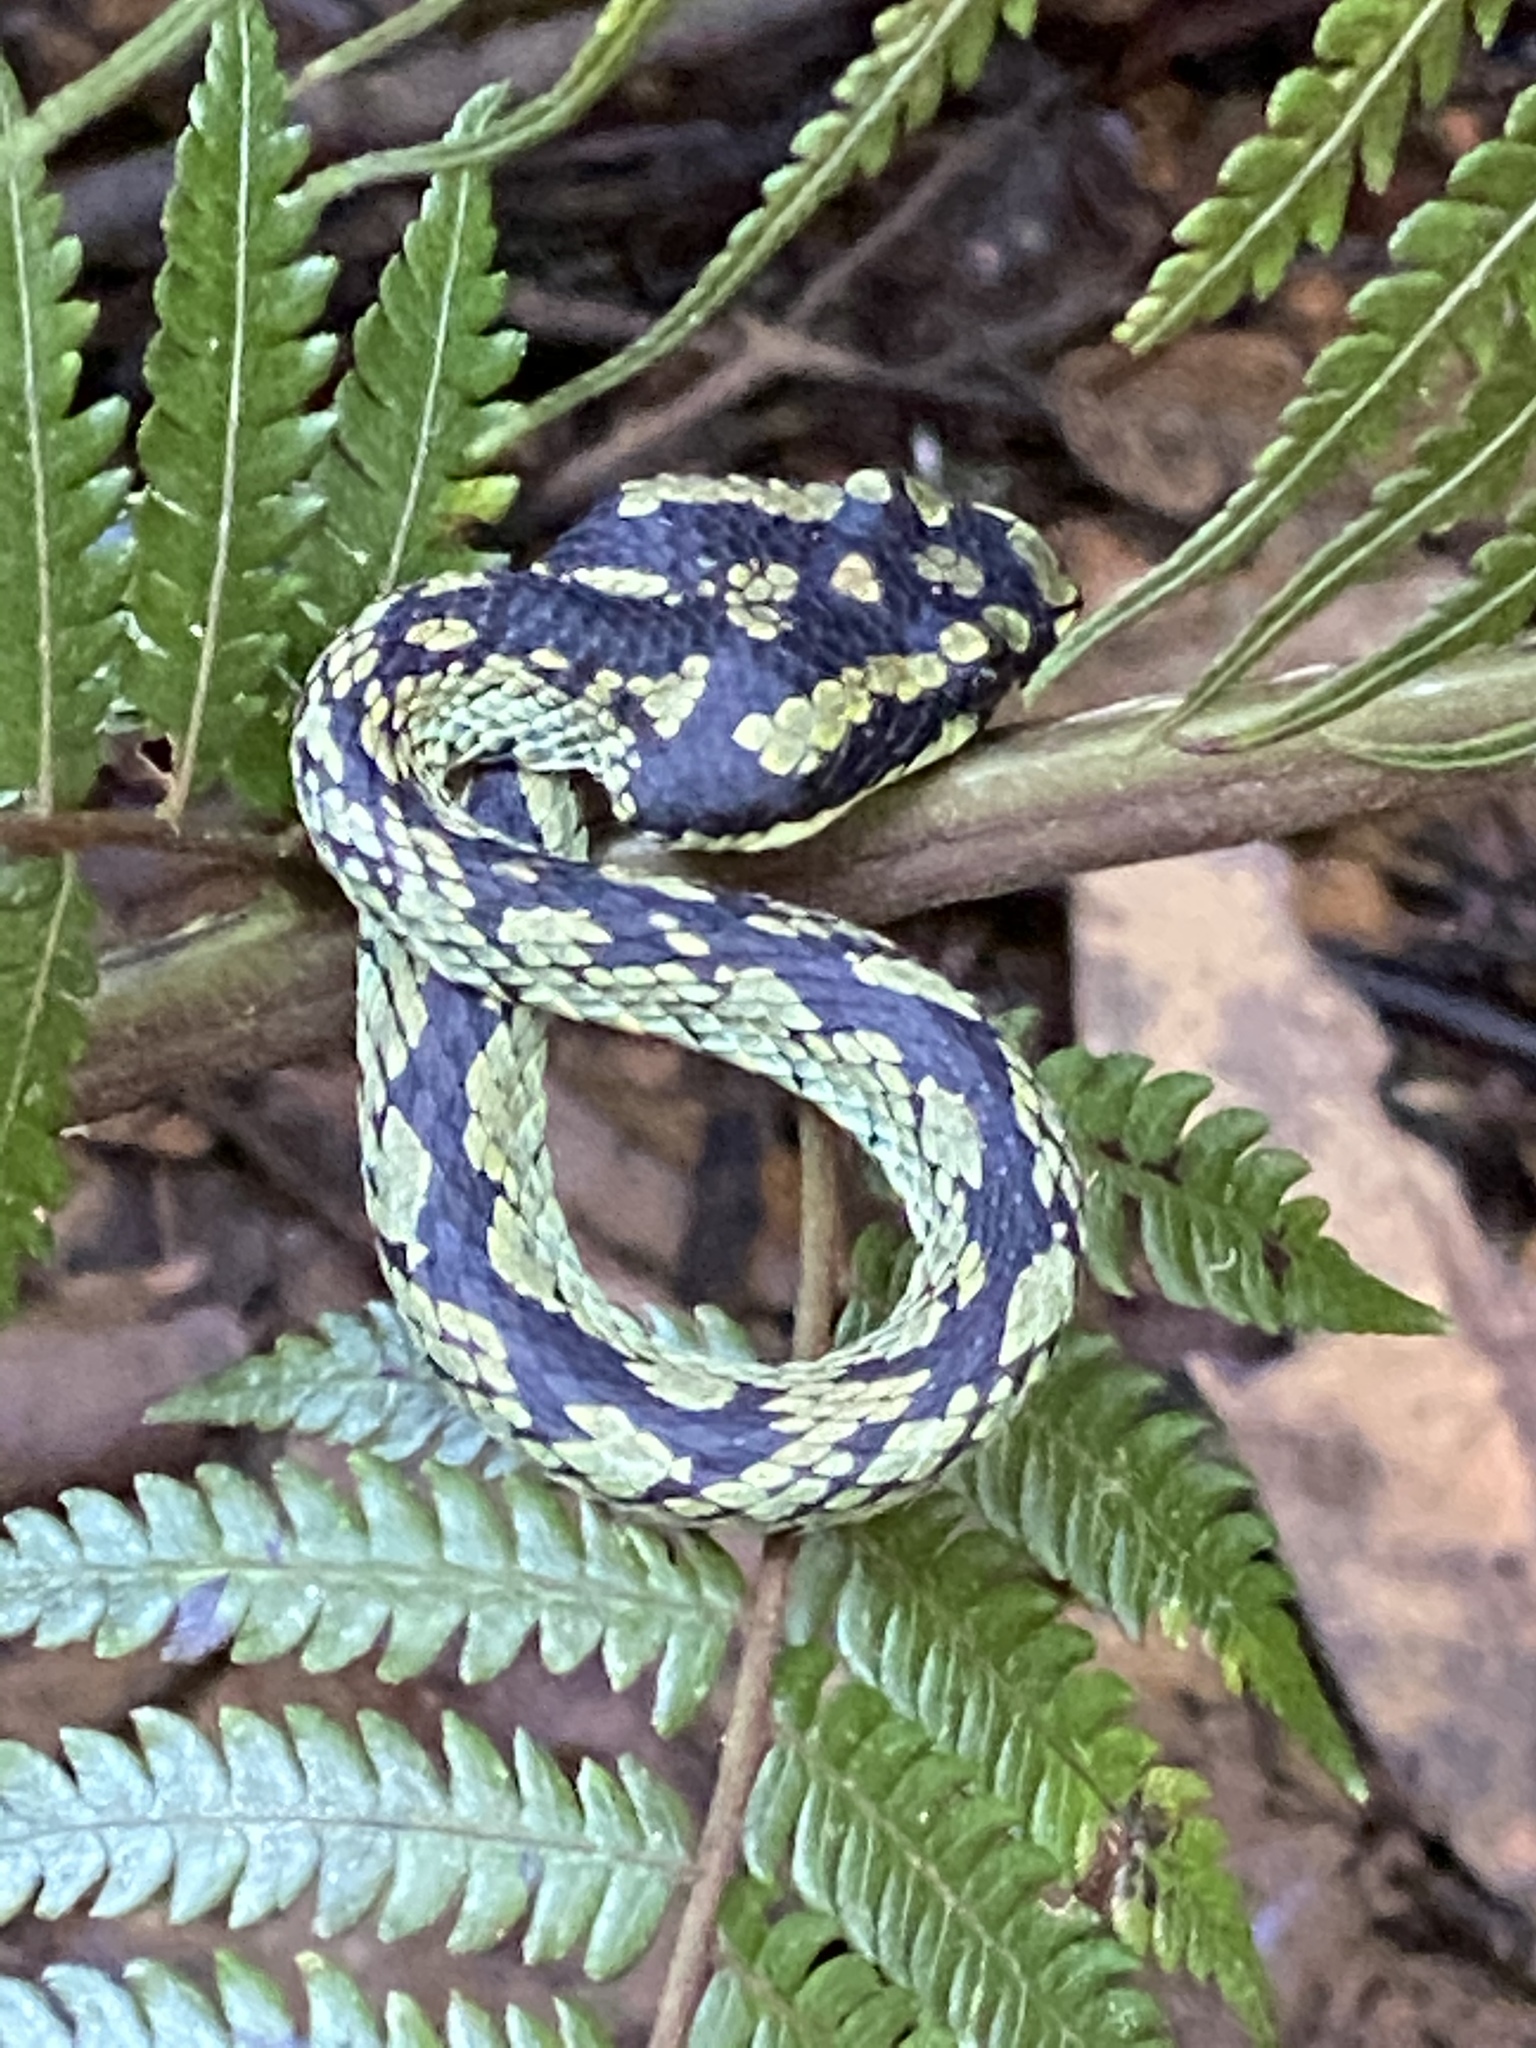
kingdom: Animalia
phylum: Chordata
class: Squamata
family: Viperidae
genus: Craspedocephalus
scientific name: Craspedocephalus trigonocephalus
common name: Ceylon pit viper
